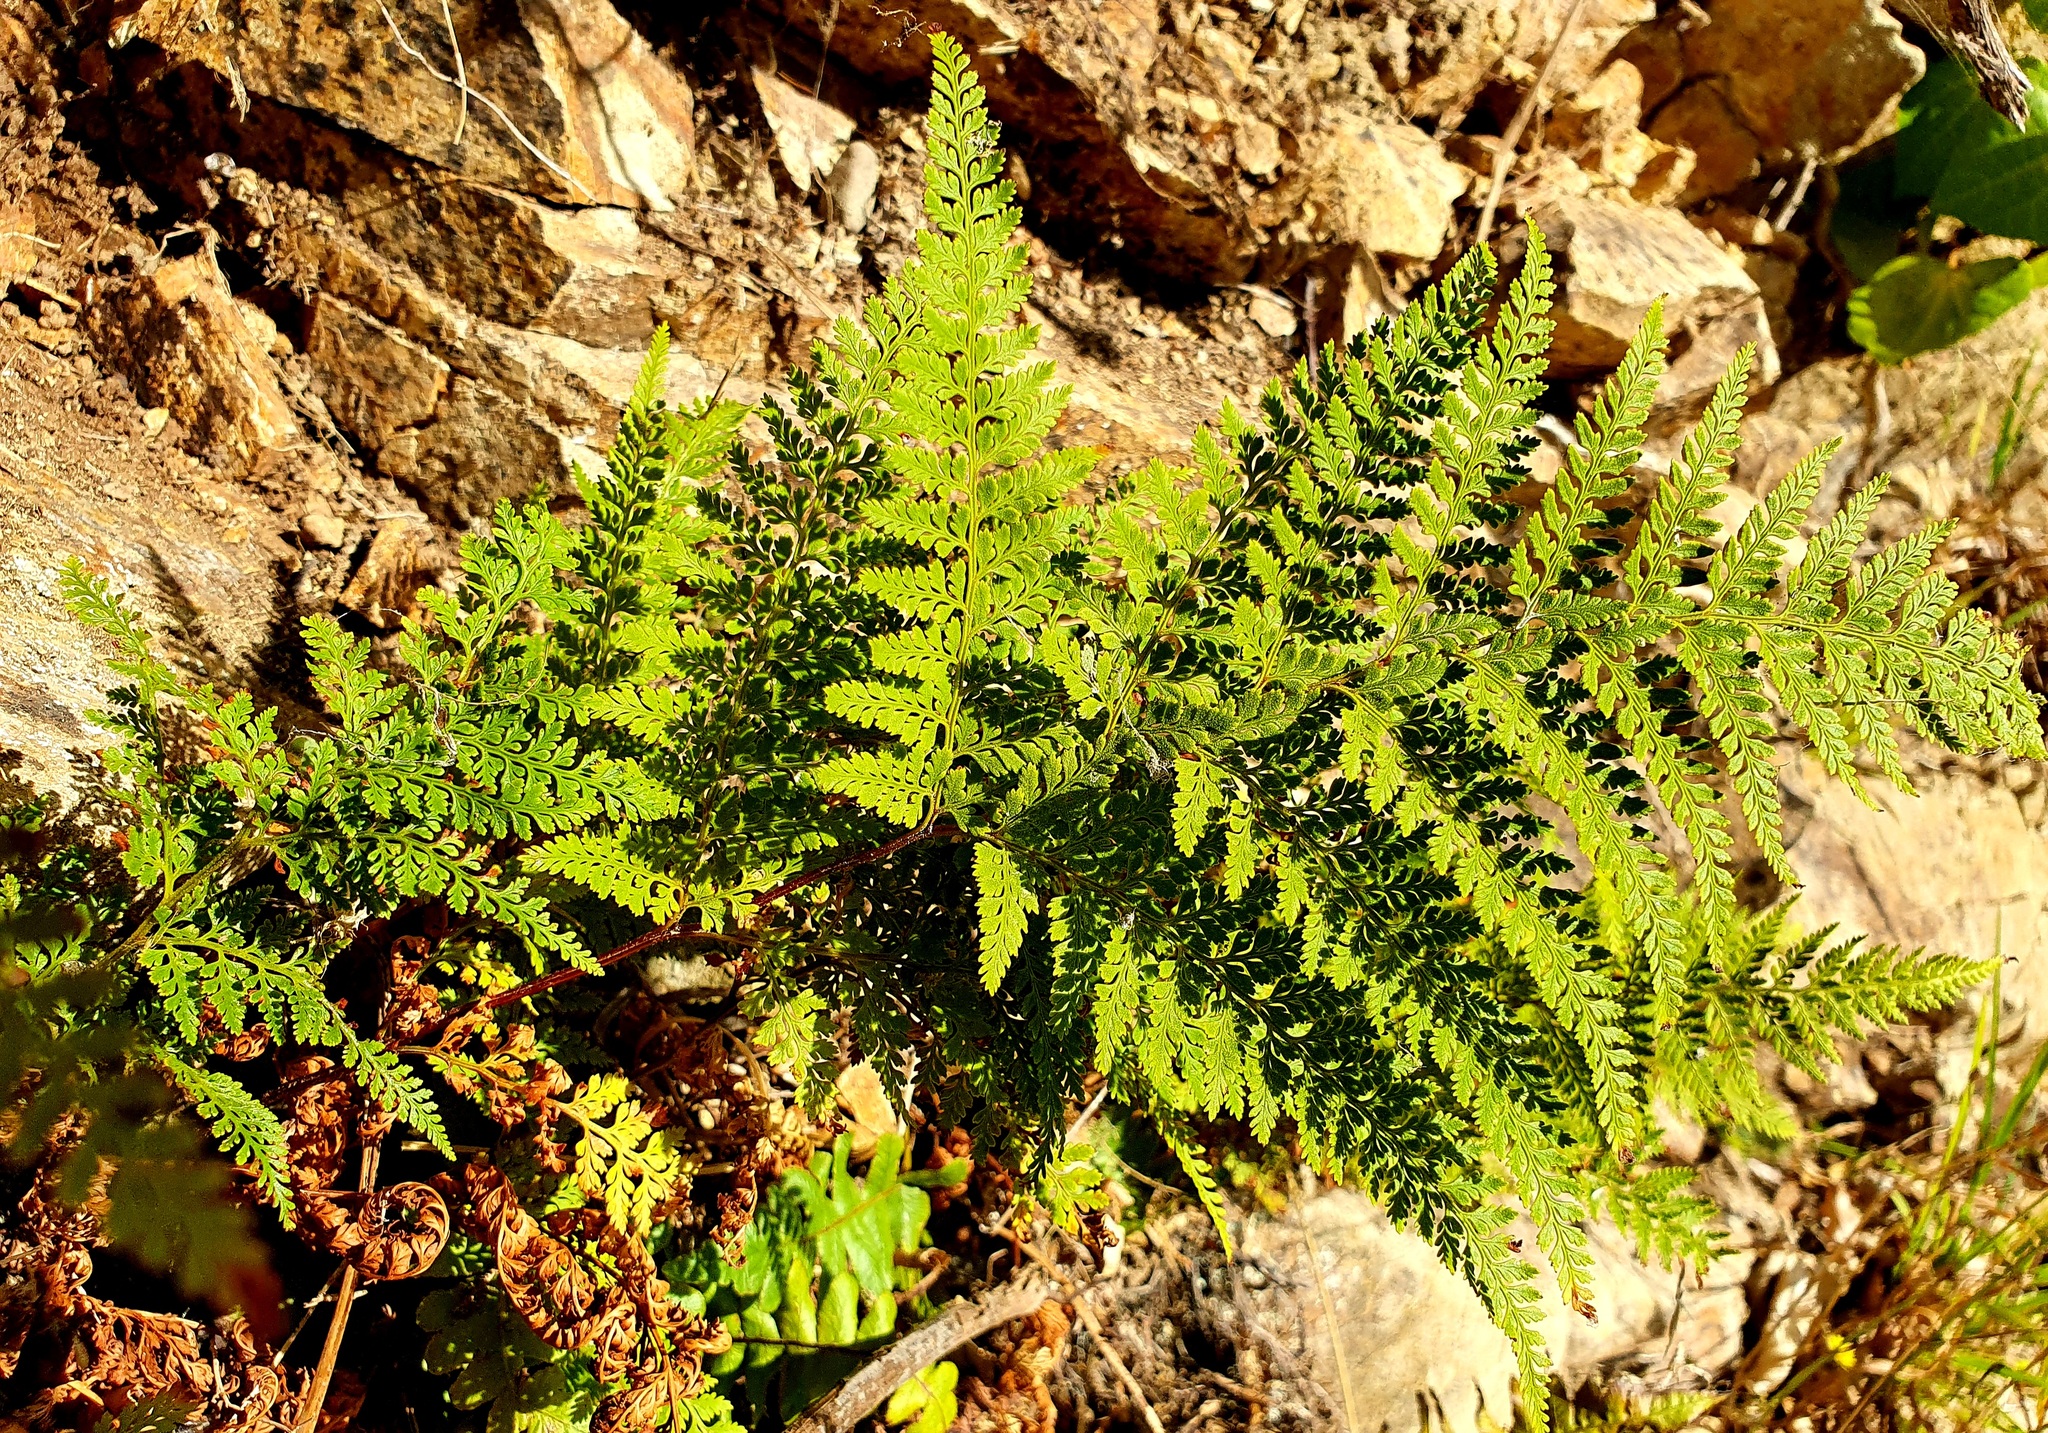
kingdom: Plantae
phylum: Tracheophyta
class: Polypodiopsida
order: Polypodiales
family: Dennstaedtiaceae
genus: Paesia
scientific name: Paesia scaberula
